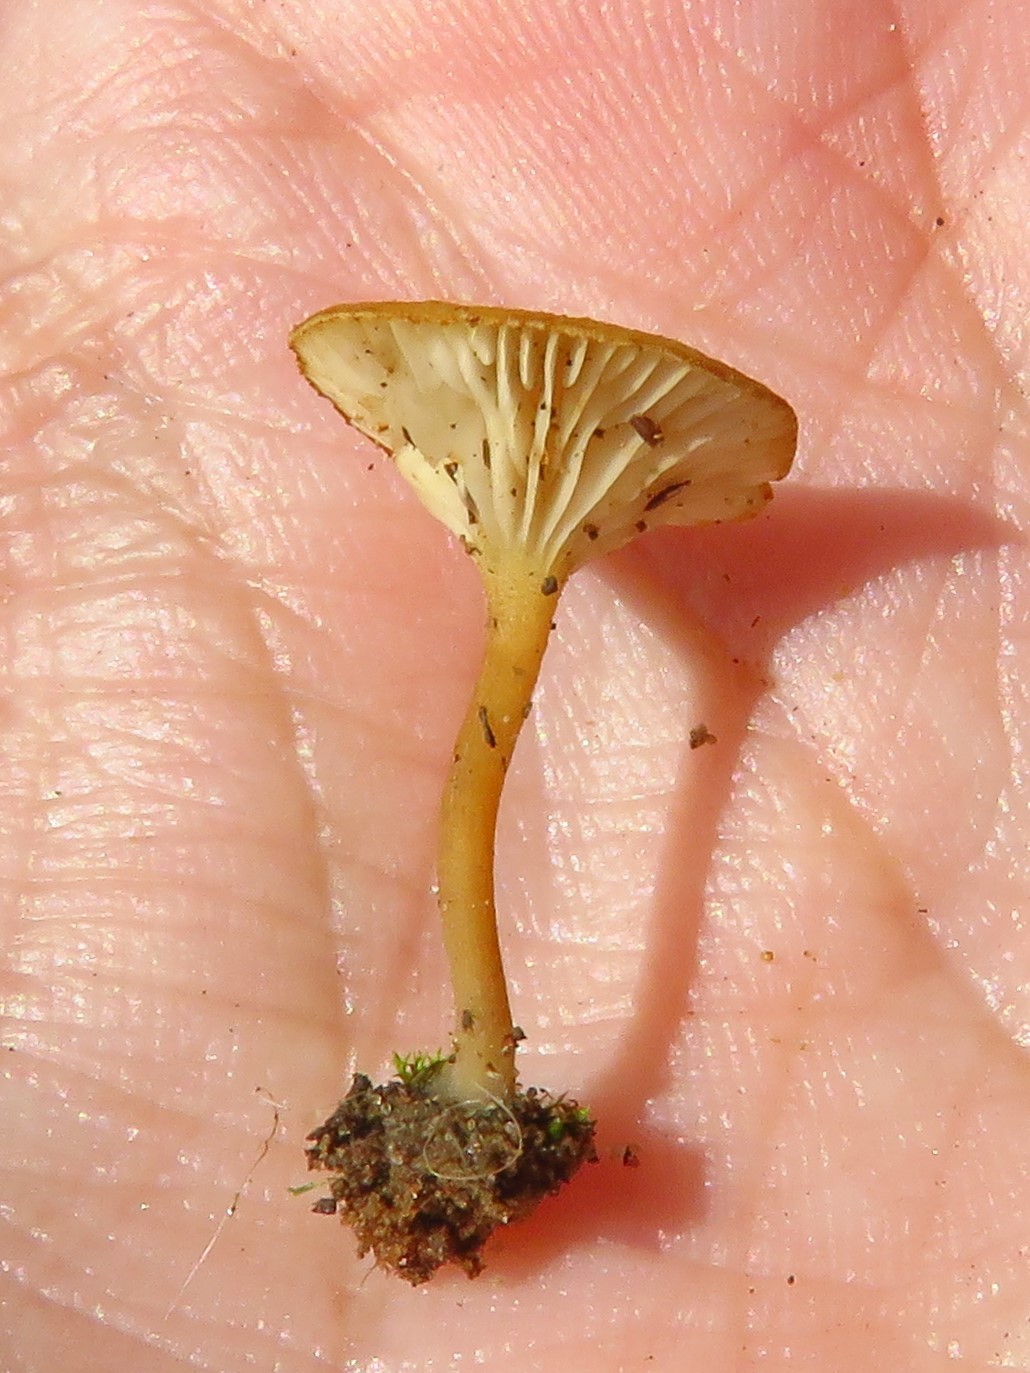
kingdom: Fungi
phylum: Basidiomycota
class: Agaricomycetes
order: Agaricales
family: Crepidotaceae
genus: Crepidotus
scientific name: Crepidotus subfulviceps
